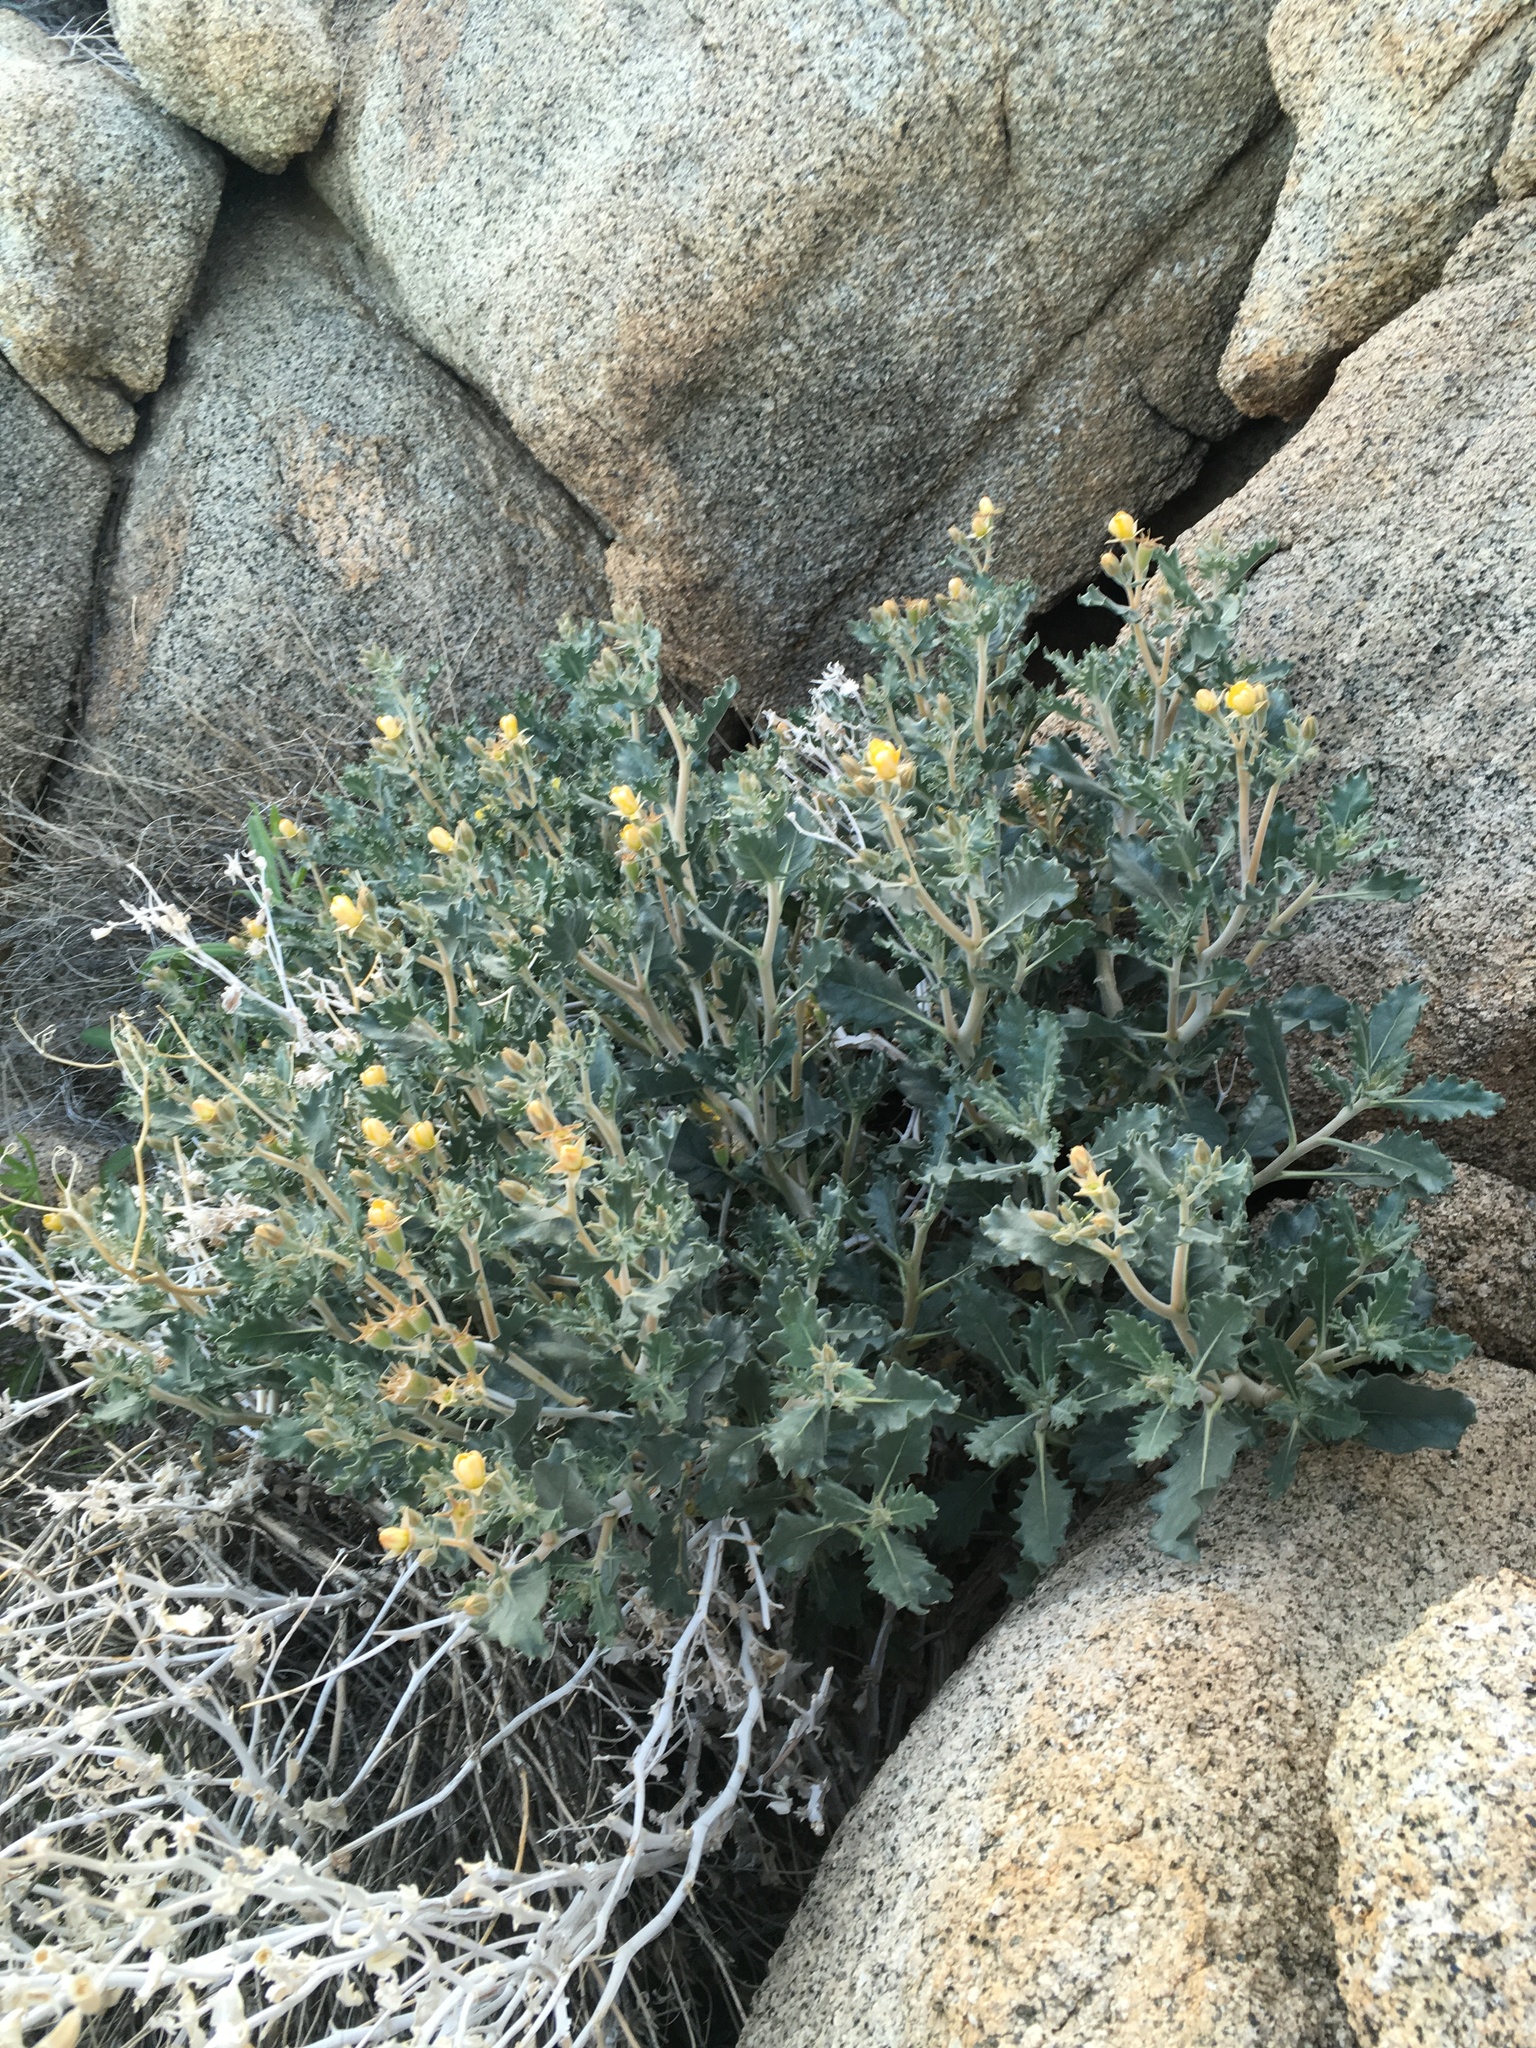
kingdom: Plantae
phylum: Tracheophyta
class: Magnoliopsida
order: Cornales
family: Loasaceae
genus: Mentzelia
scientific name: Mentzelia puberula
